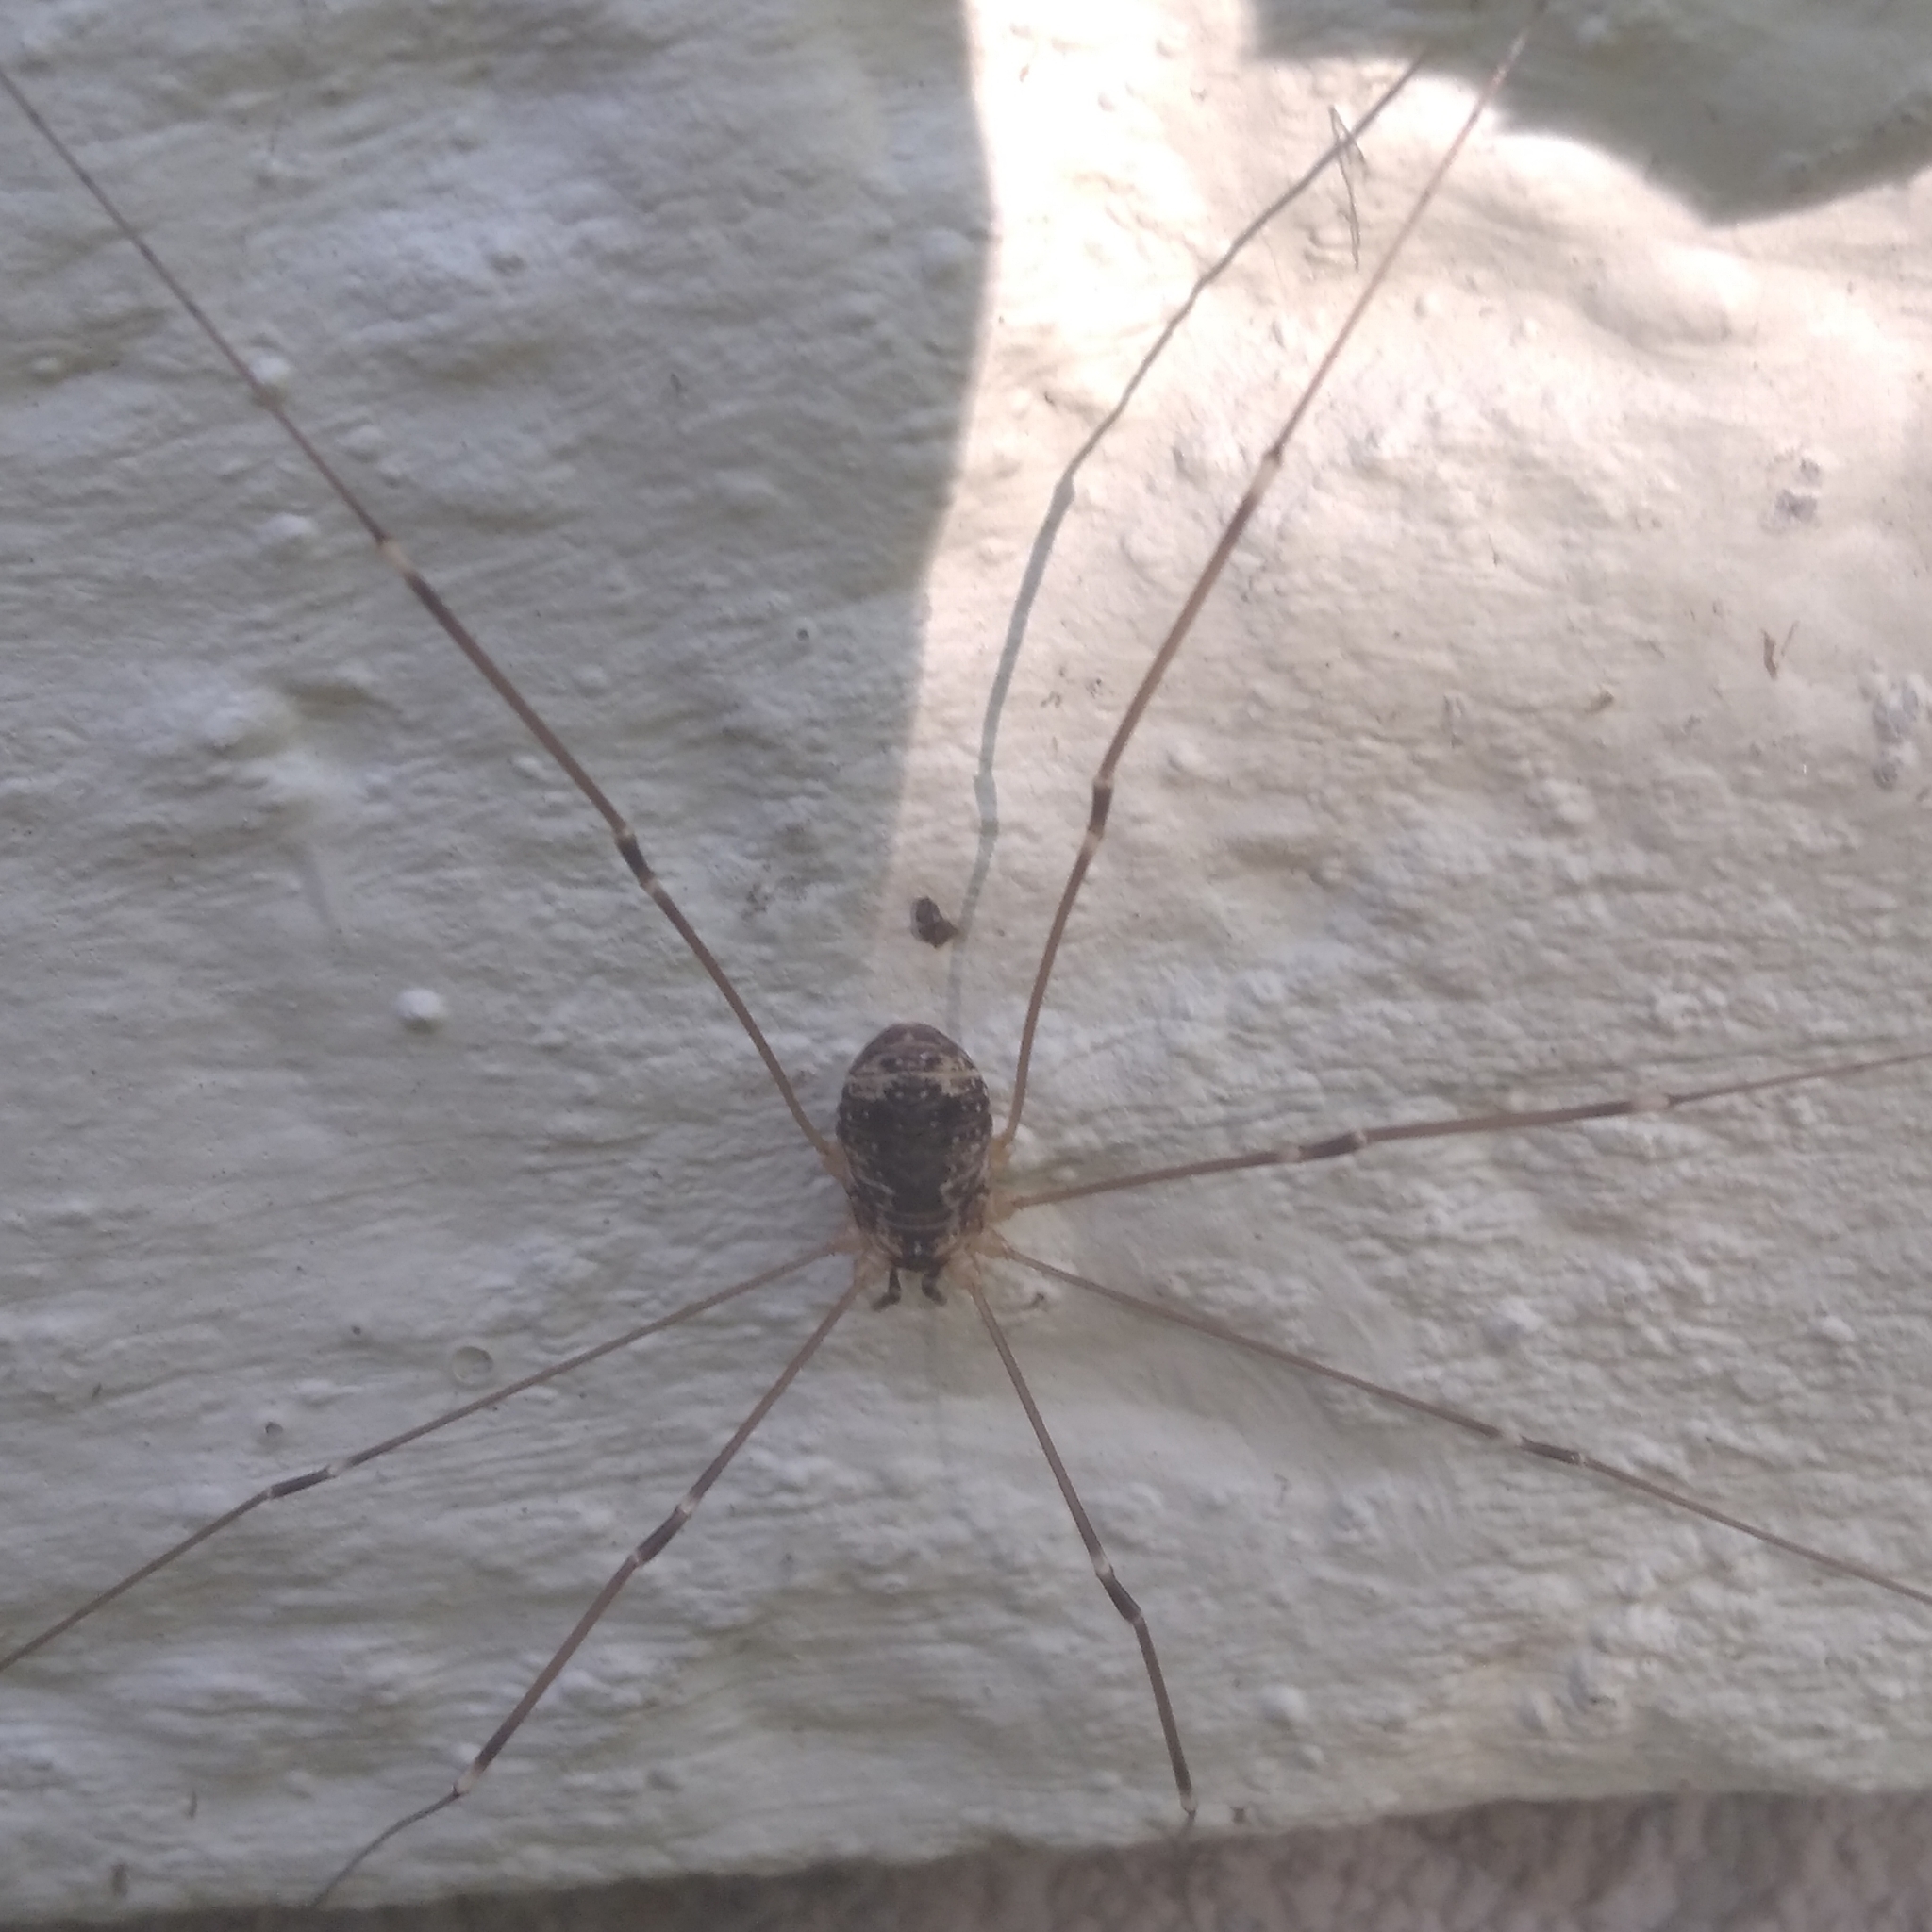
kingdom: Animalia
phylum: Arthropoda
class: Arachnida
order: Opiliones
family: Sclerosomatidae
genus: Leiobunum
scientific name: Leiobunum gracile
